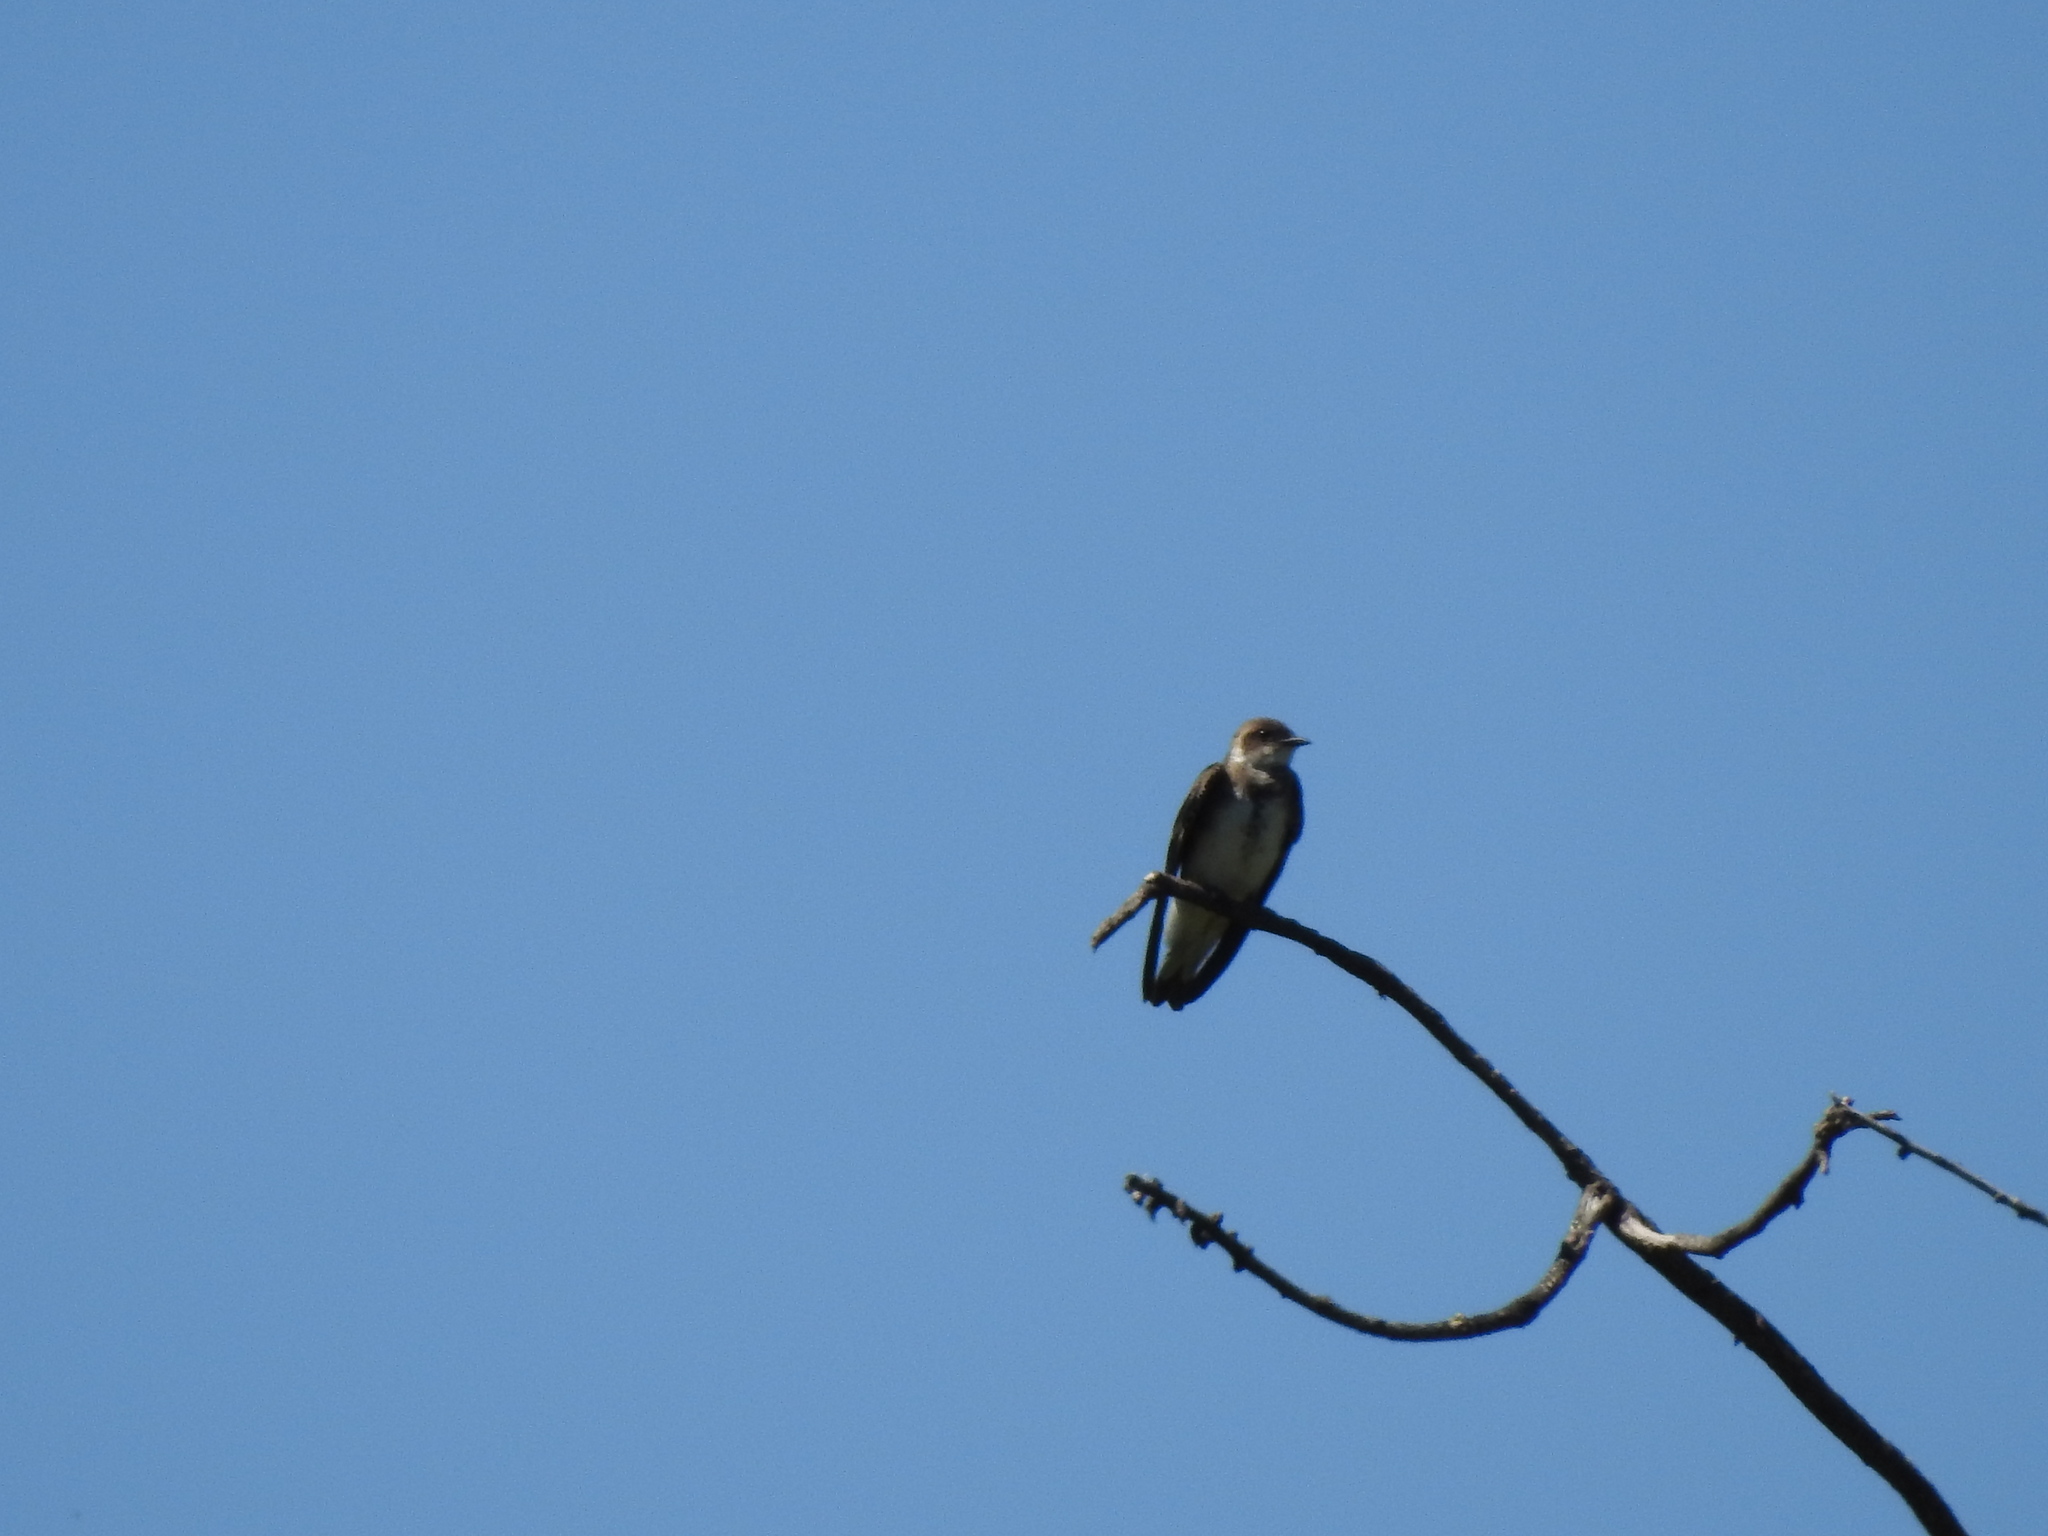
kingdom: Animalia
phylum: Chordata
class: Aves
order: Passeriformes
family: Hirundinidae
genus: Progne
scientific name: Progne tapera
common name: Brown-chested martin
